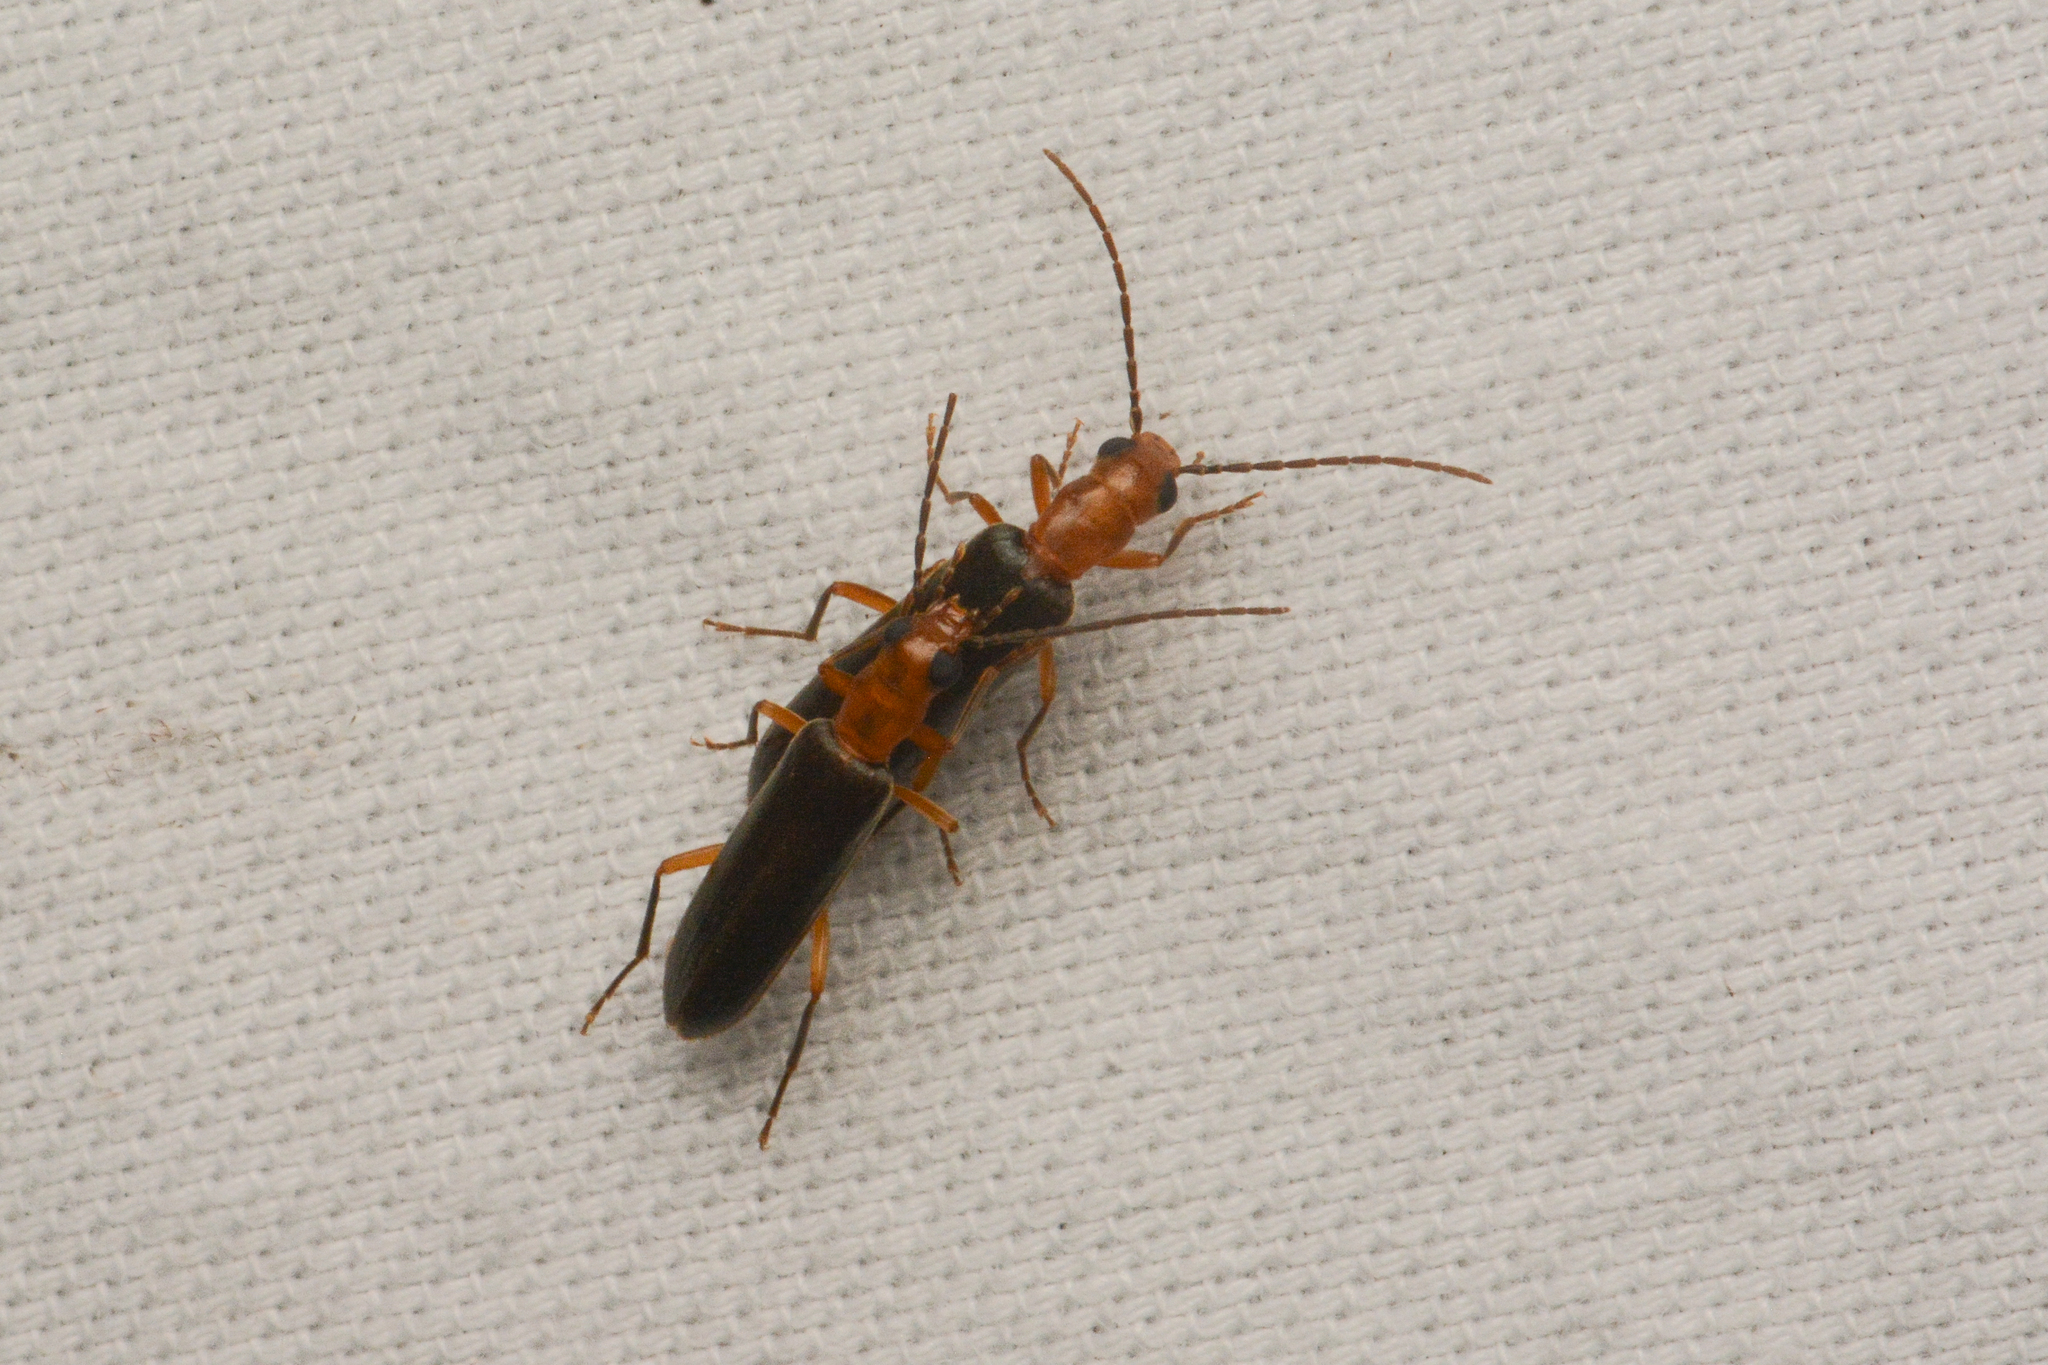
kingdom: Animalia
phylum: Arthropoda
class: Insecta
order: Coleoptera
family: Oedemeridae
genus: Xanthochroina
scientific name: Xanthochroina bicolor
